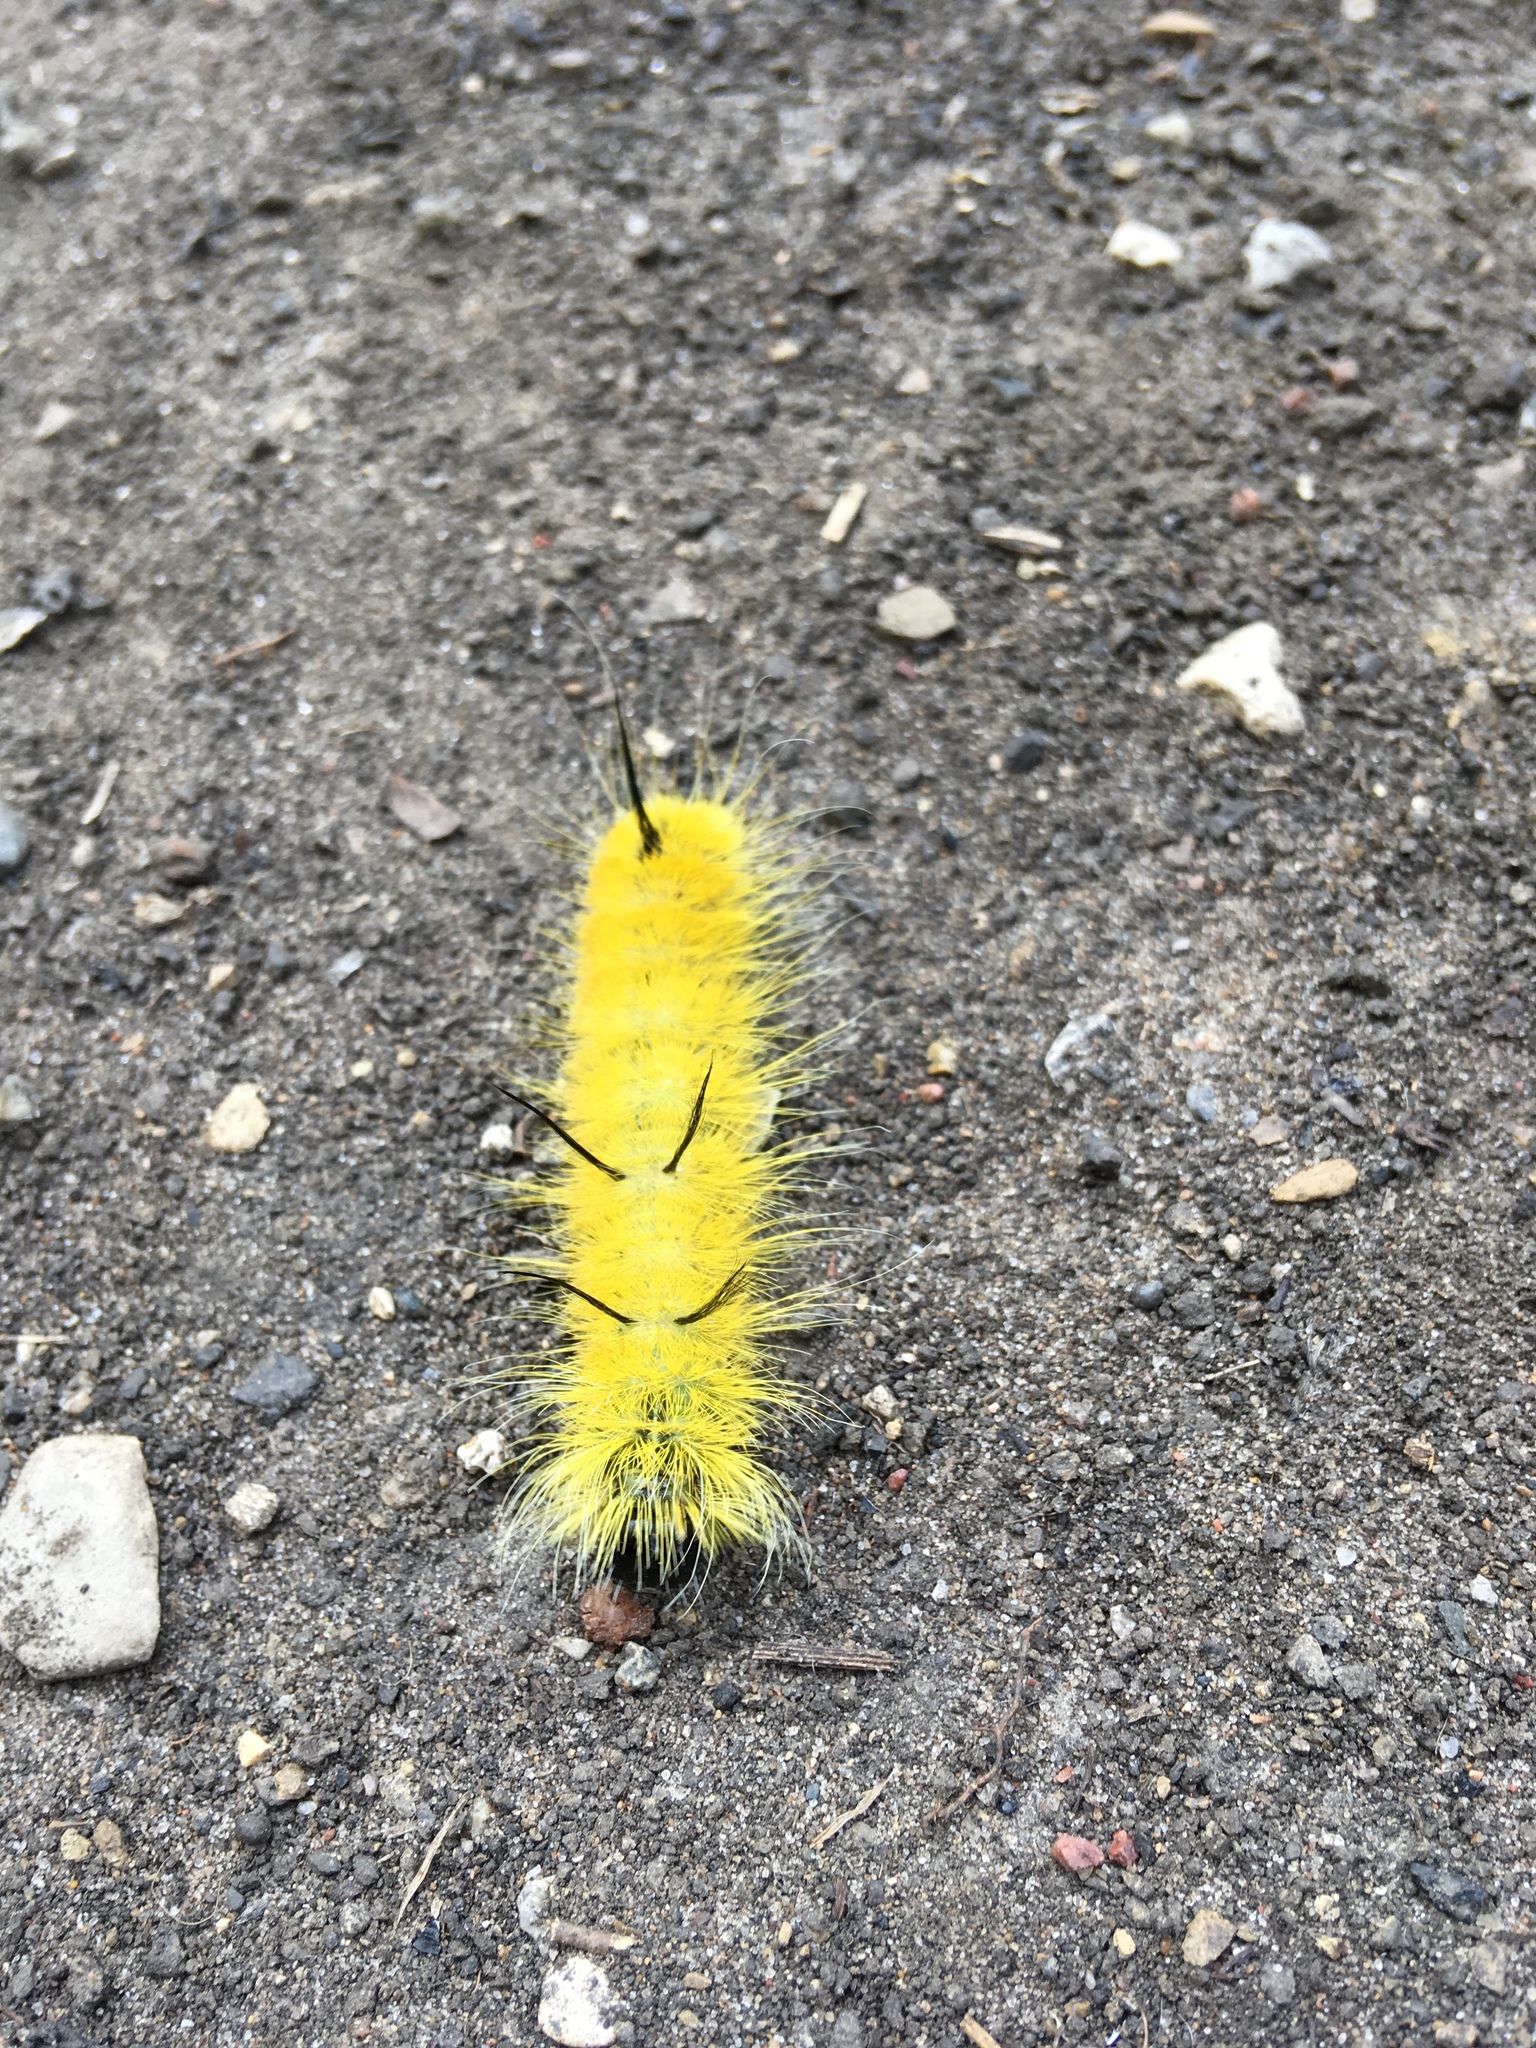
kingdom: Animalia
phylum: Arthropoda
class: Insecta
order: Lepidoptera
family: Noctuidae
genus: Acronicta
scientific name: Acronicta americana
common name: American dagger
